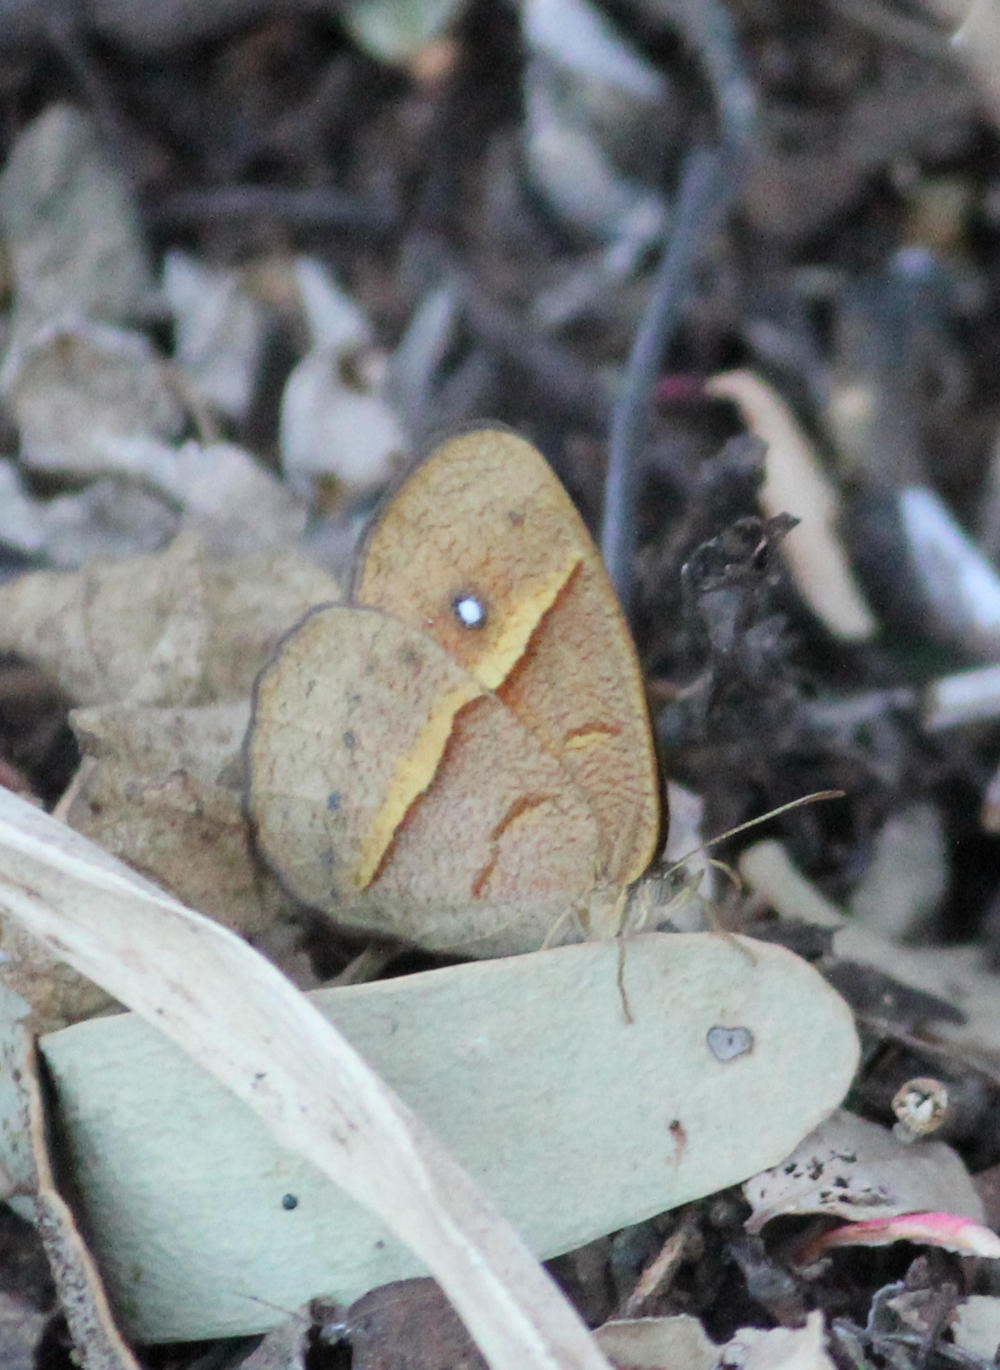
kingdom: Animalia
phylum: Arthropoda
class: Insecta
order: Lepidoptera
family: Nymphalidae
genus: Heteropsis
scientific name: Heteropsis perspicua
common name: Eyed bush brown
